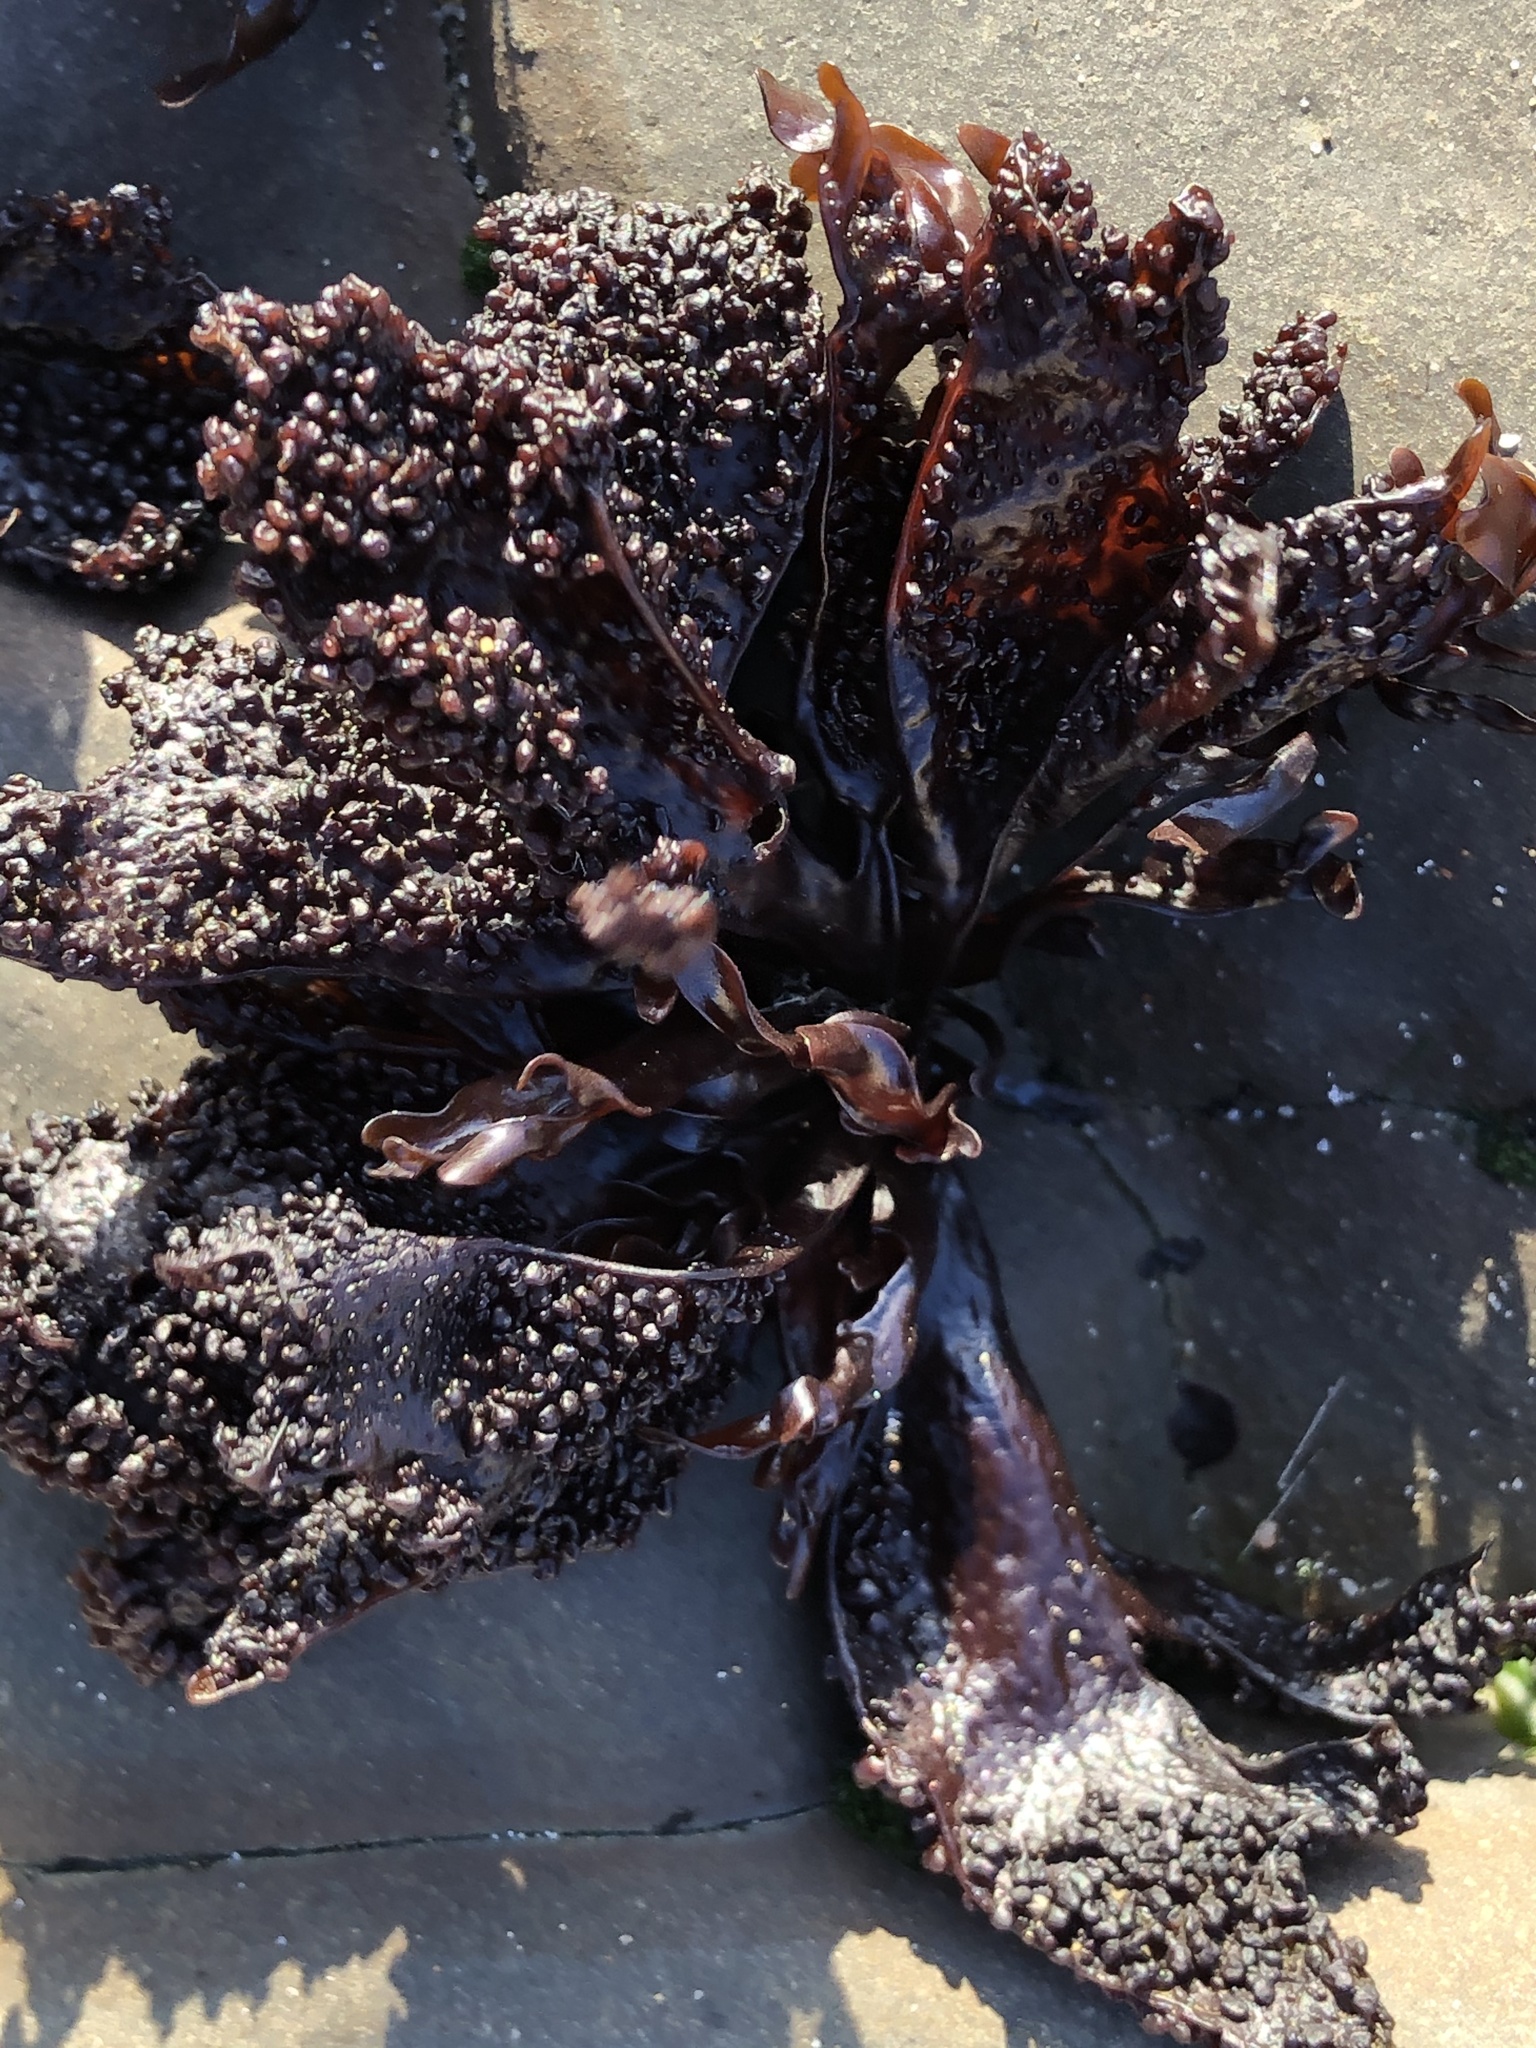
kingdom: Plantae
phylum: Rhodophyta
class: Florideophyceae
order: Gigartinales
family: Phyllophoraceae
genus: Mastocarpus
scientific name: Mastocarpus papillatus
